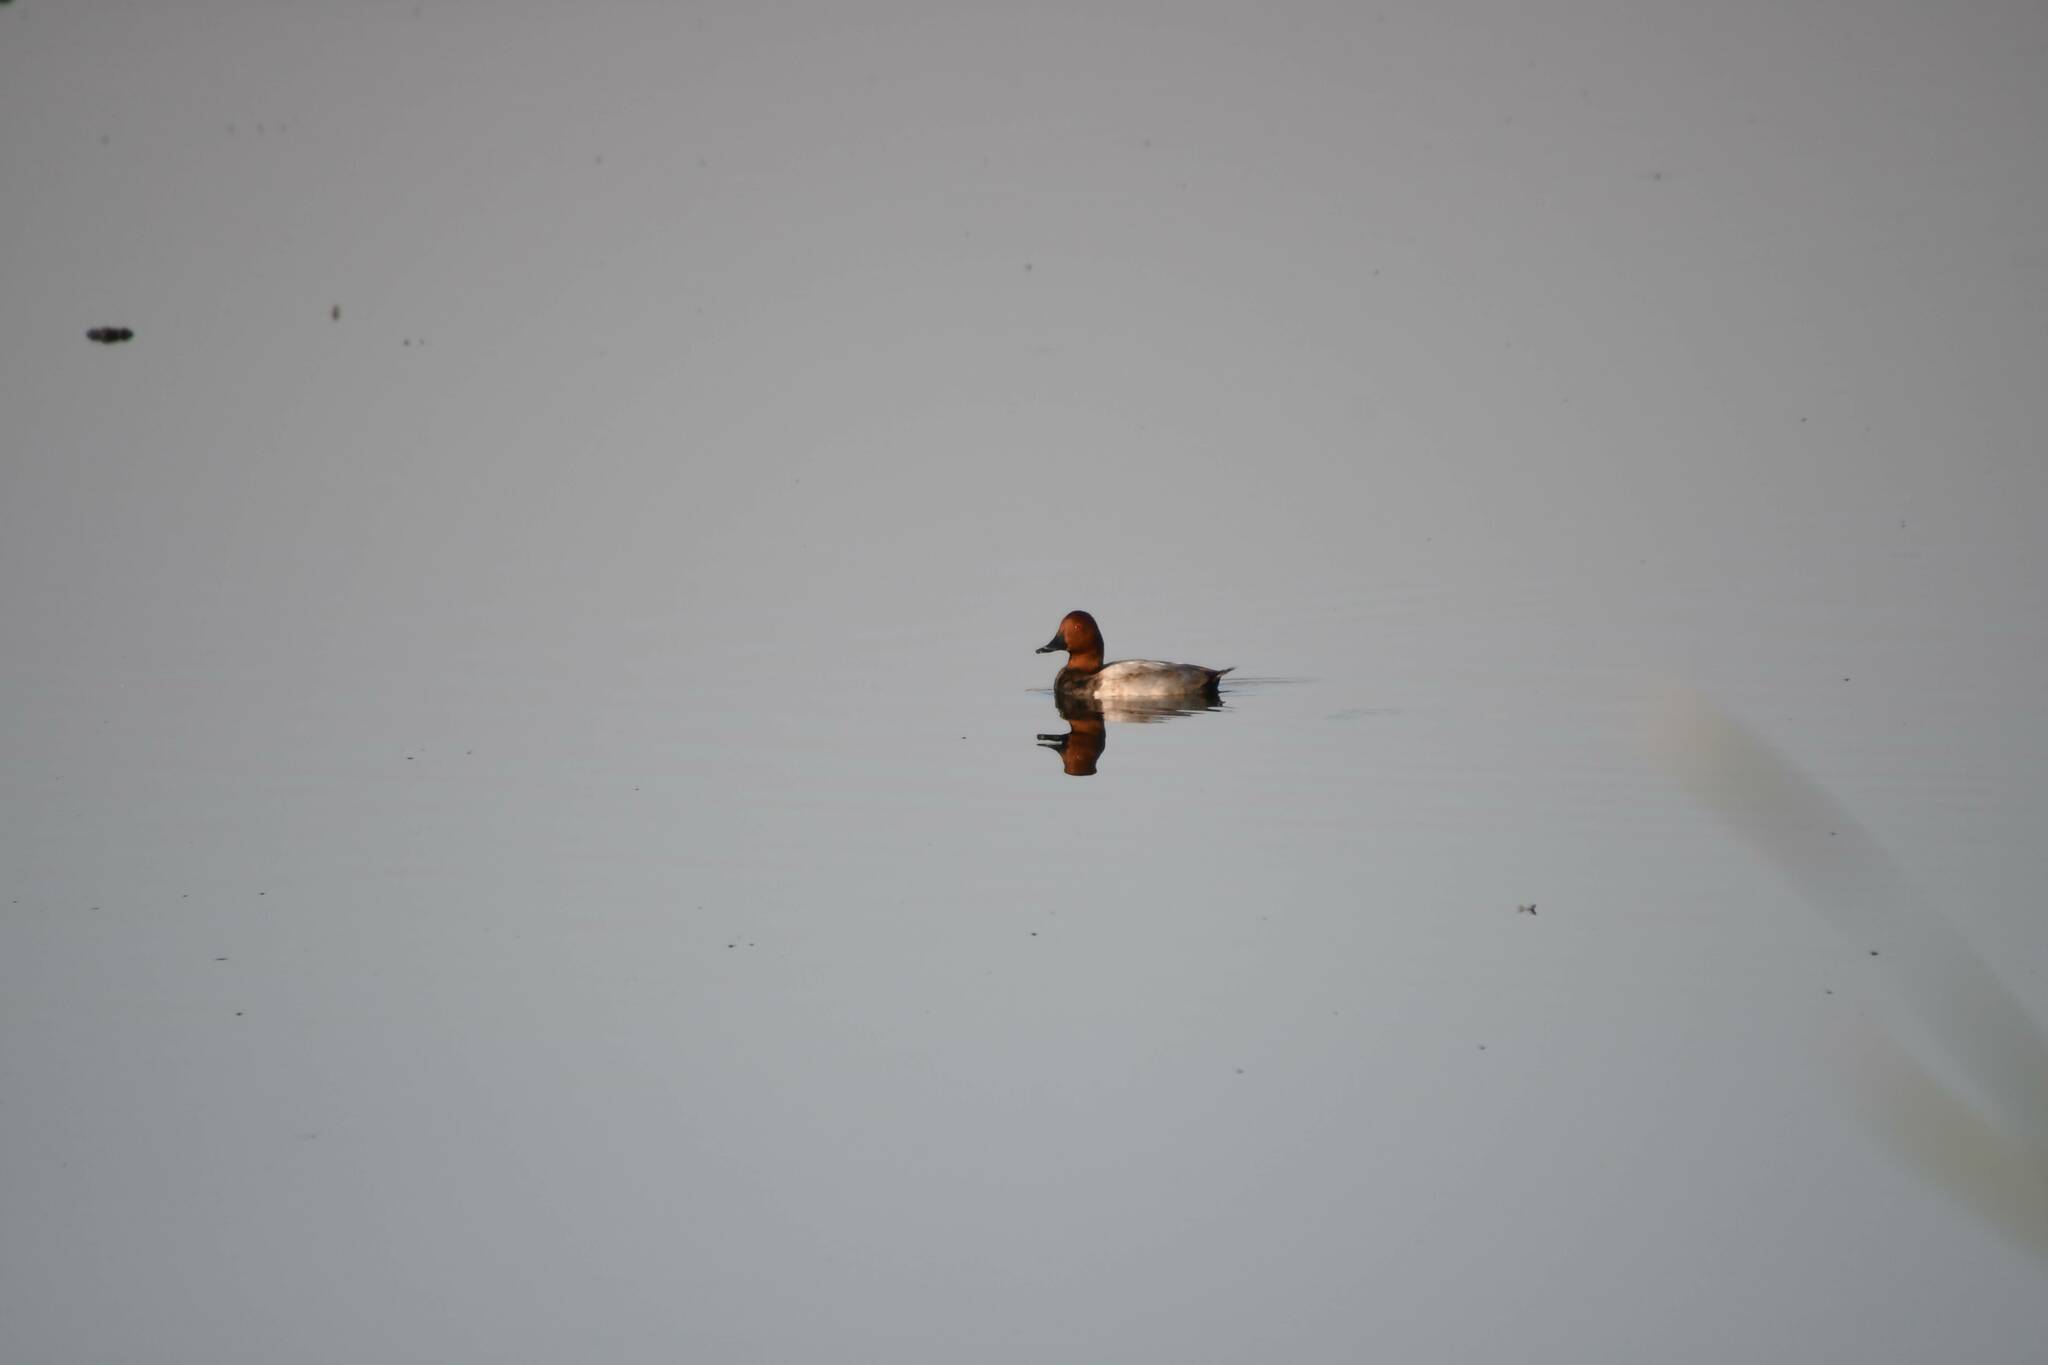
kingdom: Animalia
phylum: Chordata
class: Aves
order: Anseriformes
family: Anatidae
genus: Aythya
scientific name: Aythya ferina
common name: Common pochard
